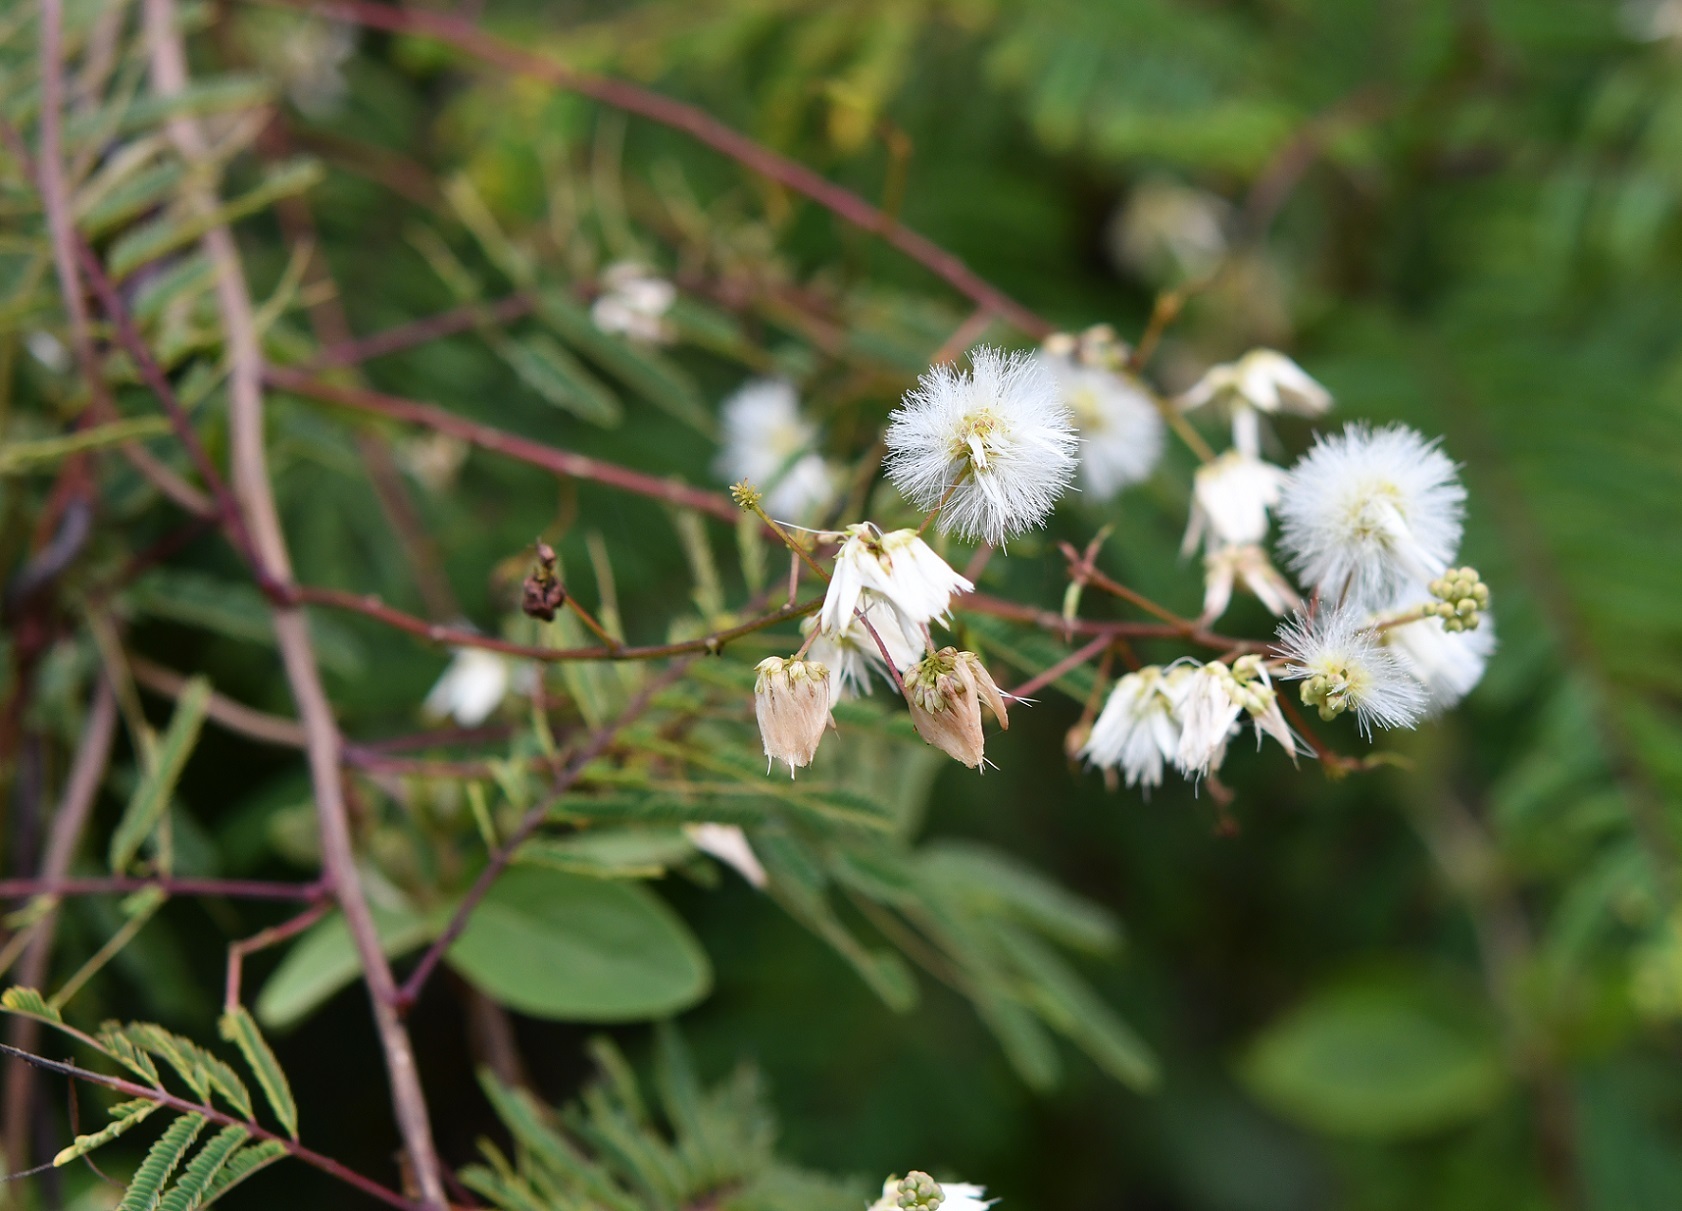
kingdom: Plantae
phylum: Tracheophyta
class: Magnoliopsida
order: Fabales
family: Fabaceae
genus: Acaciella
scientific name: Acaciella angustissima
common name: Prairie acacia
